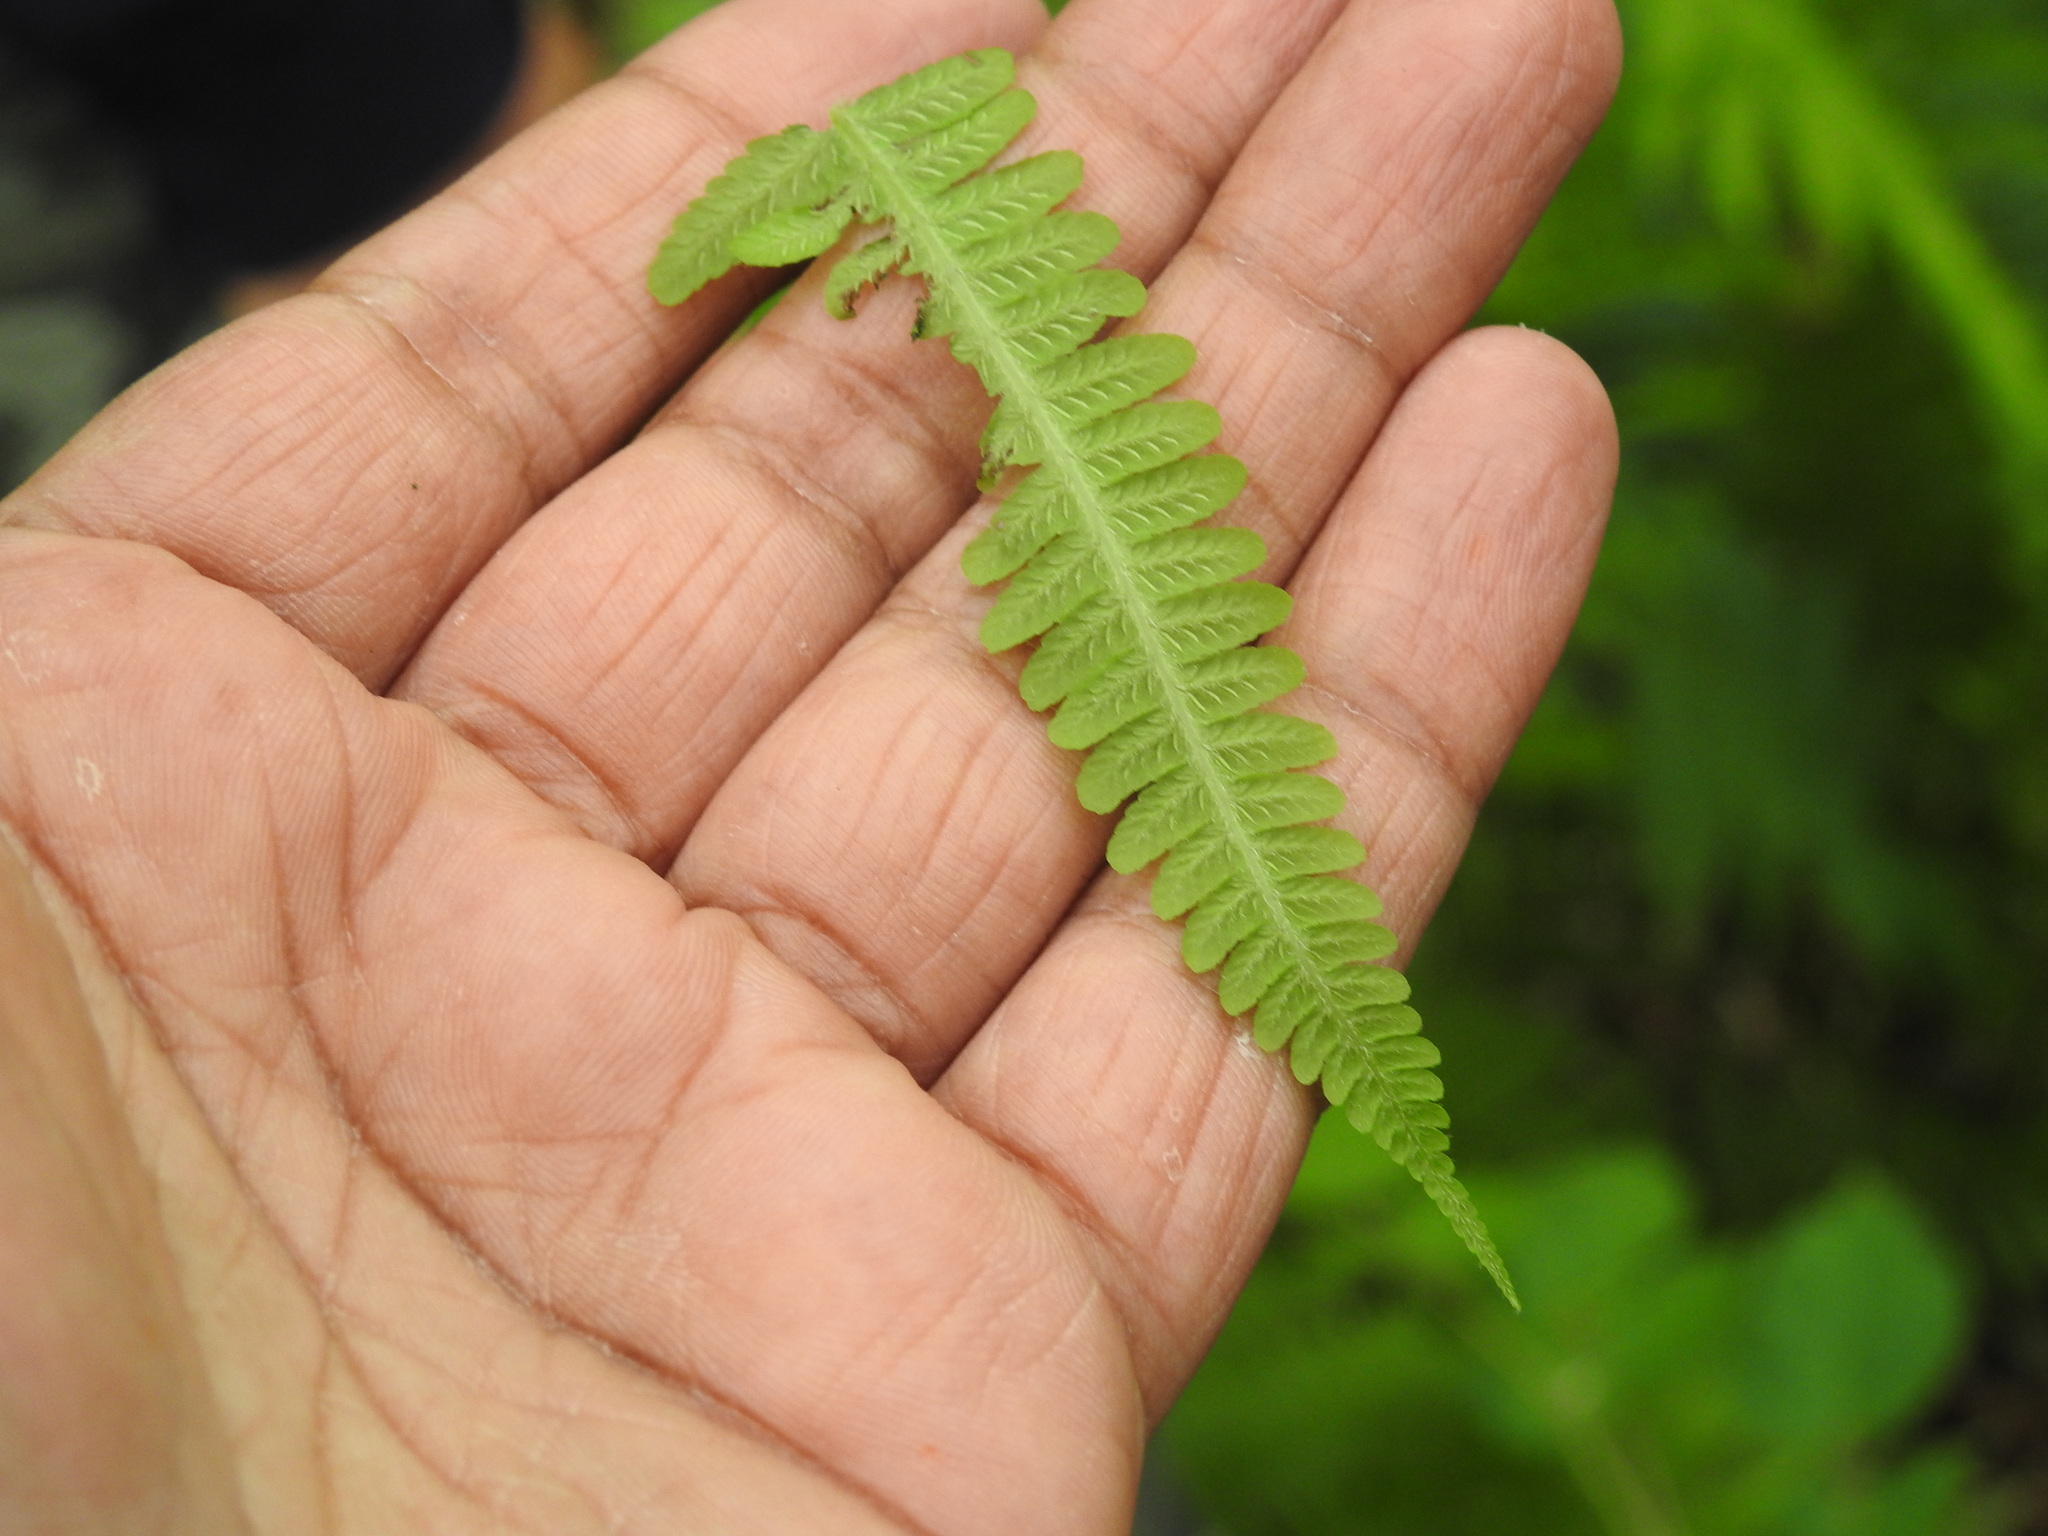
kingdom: Plantae
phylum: Tracheophyta
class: Polypodiopsida
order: Polypodiales
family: Athyriaceae
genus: Deparia
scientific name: Deparia acrostichoides
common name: Silver false spleenwort
